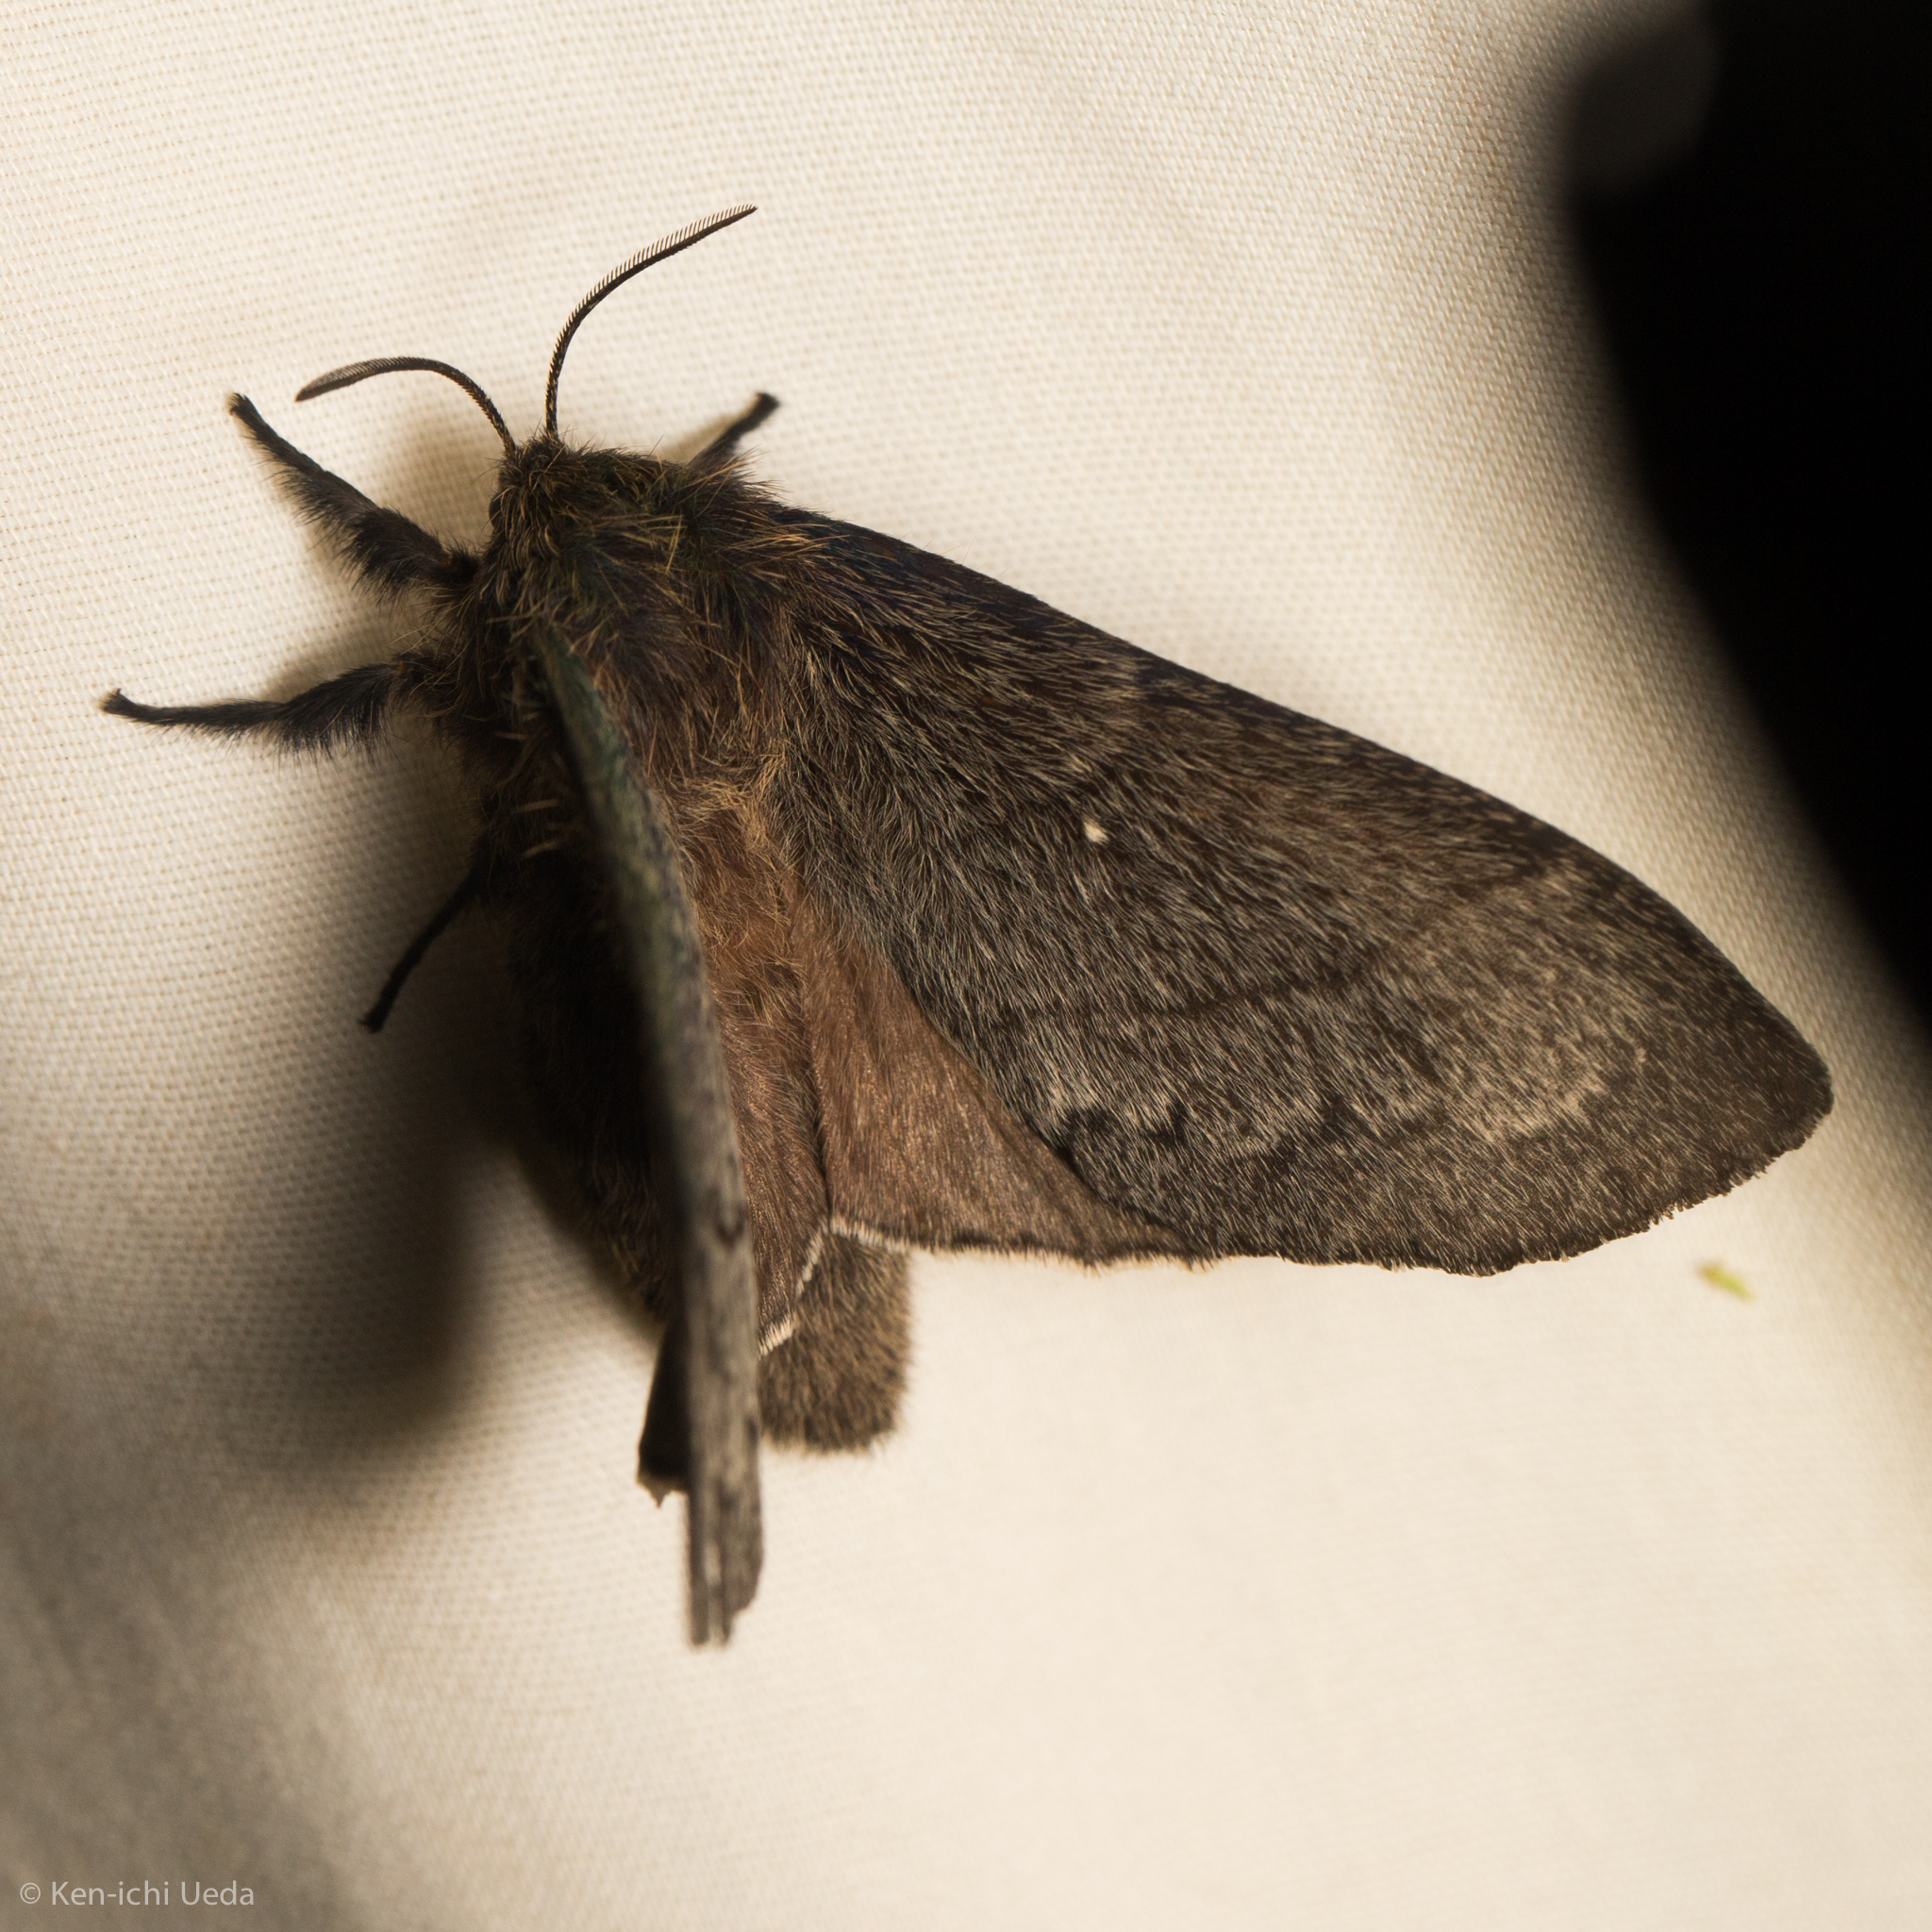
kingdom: Animalia
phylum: Arthropoda
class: Insecta
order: Lepidoptera
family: Lasiocampidae
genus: Gloveria
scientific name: Gloveria gargamelle
